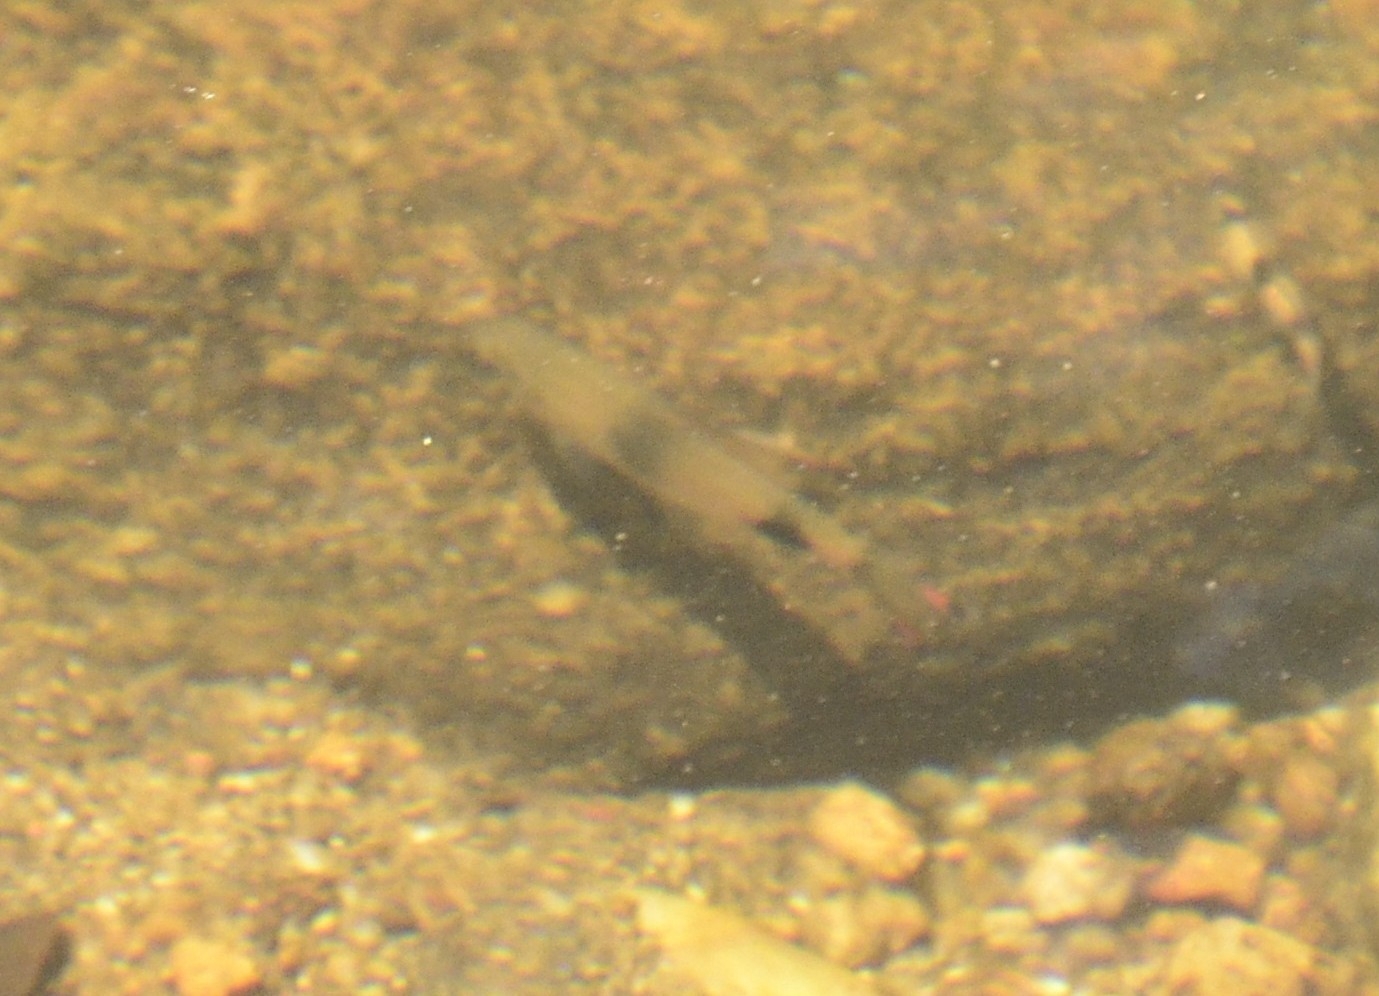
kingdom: Animalia
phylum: Chordata
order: Cypriniformes
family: Cyprinidae
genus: Dawkinsia
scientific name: Dawkinsia filamentosa
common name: Filament barb
